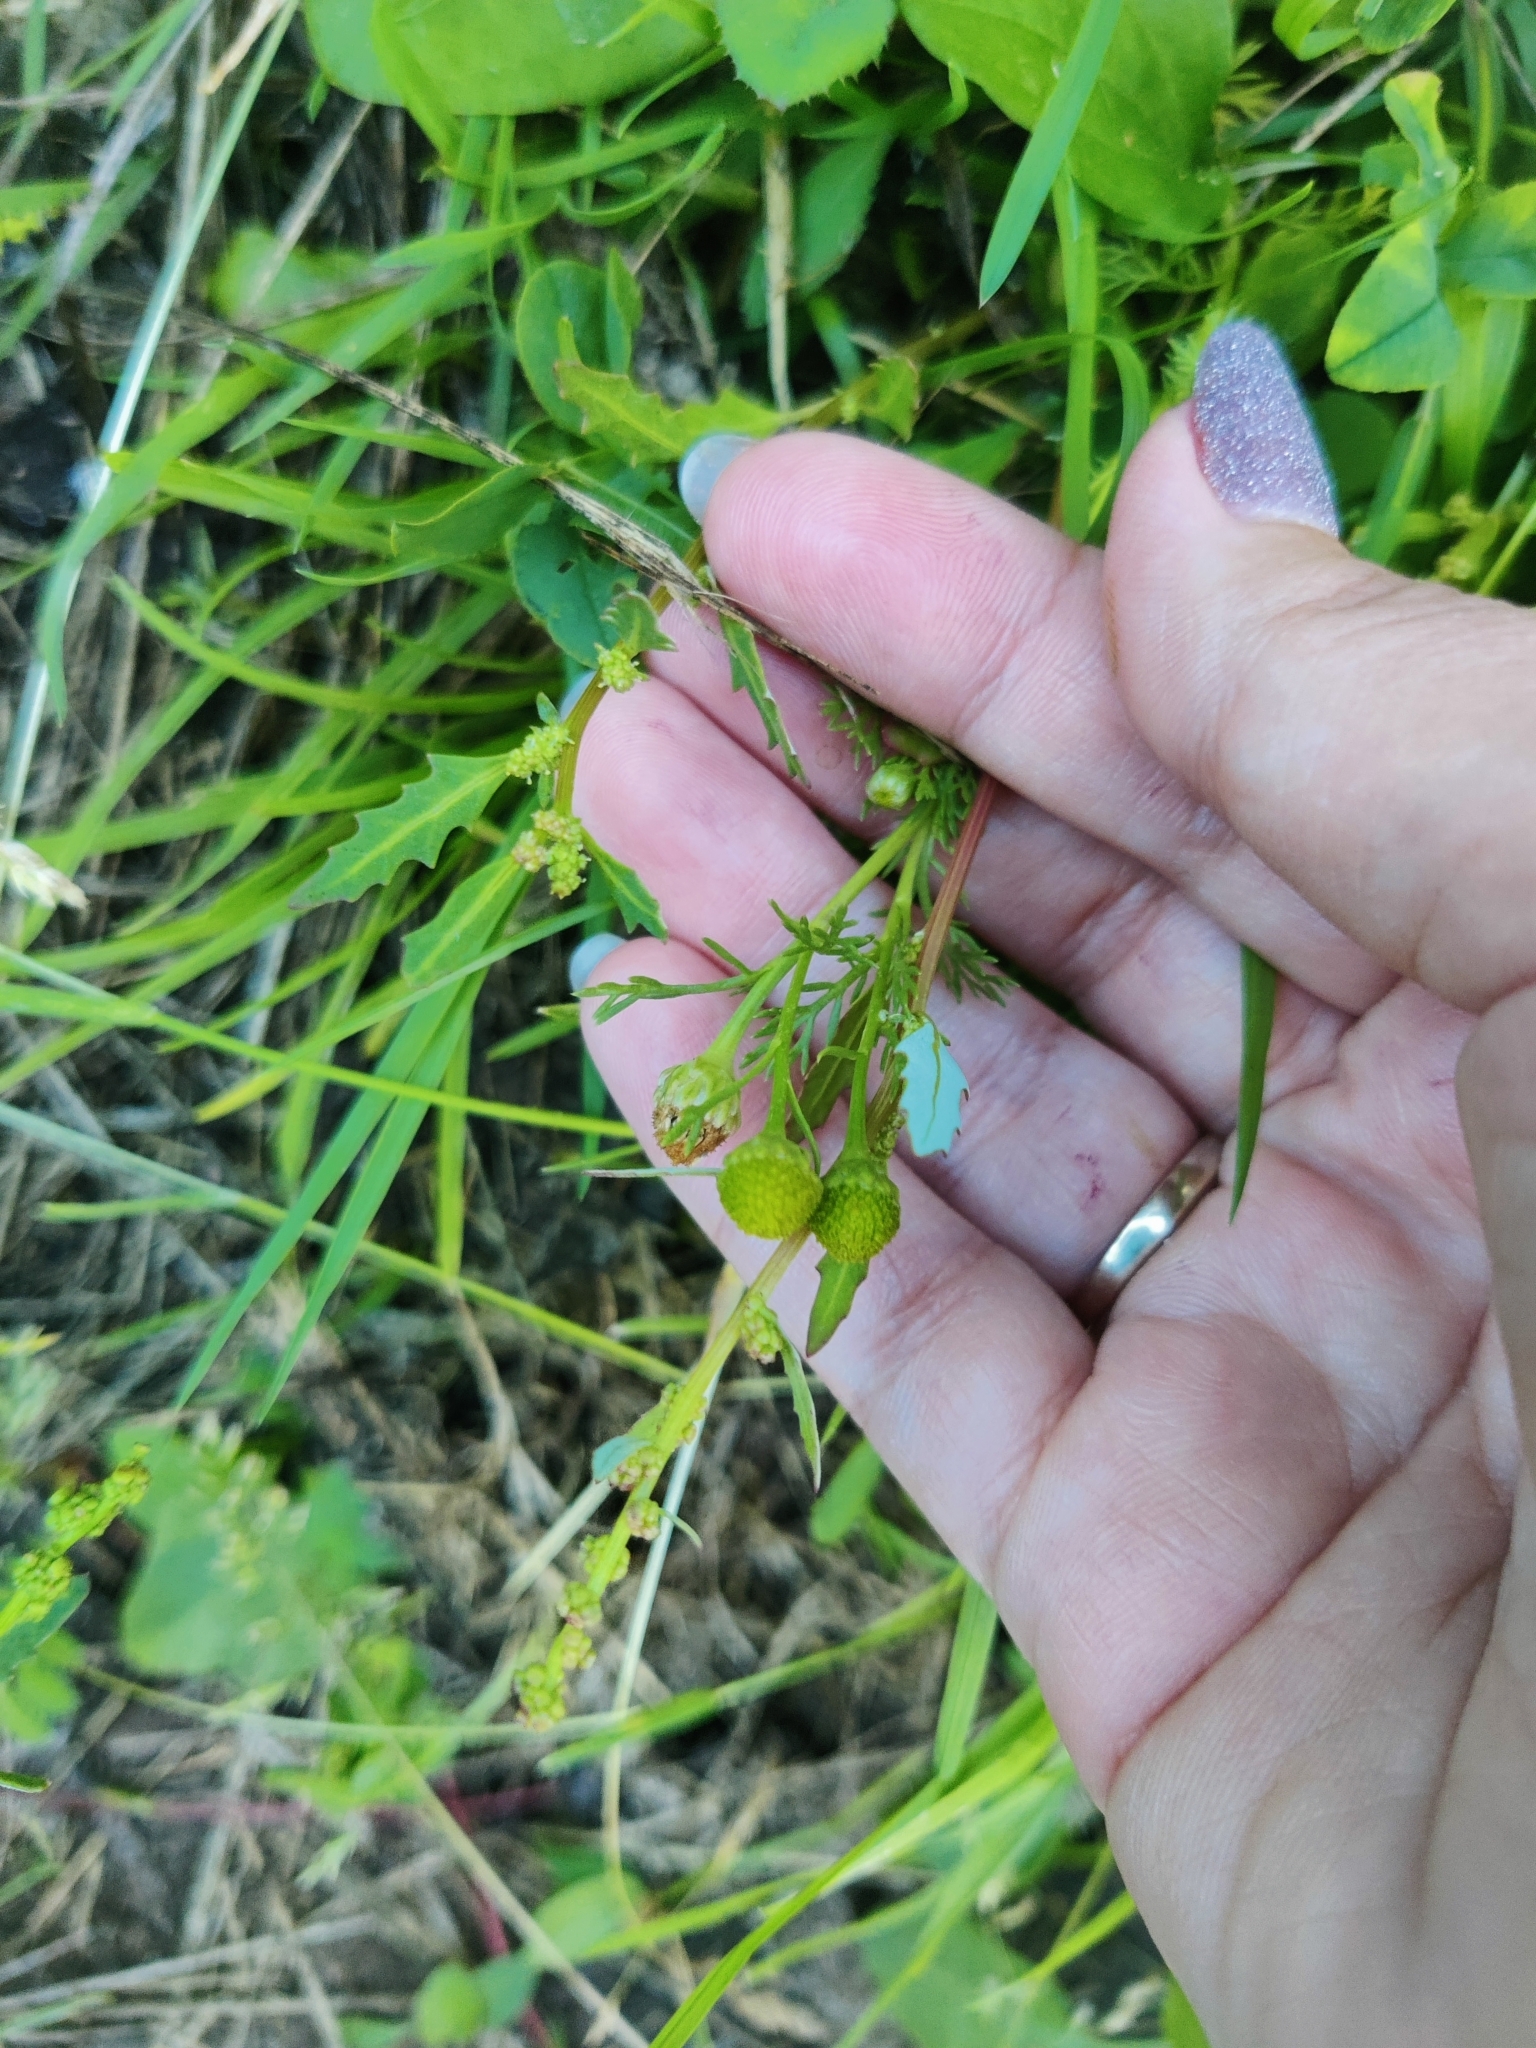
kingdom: Plantae
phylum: Tracheophyta
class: Magnoliopsida
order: Asterales
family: Asteraceae
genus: Matricaria
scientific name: Matricaria discoidea
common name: Disc mayweed
